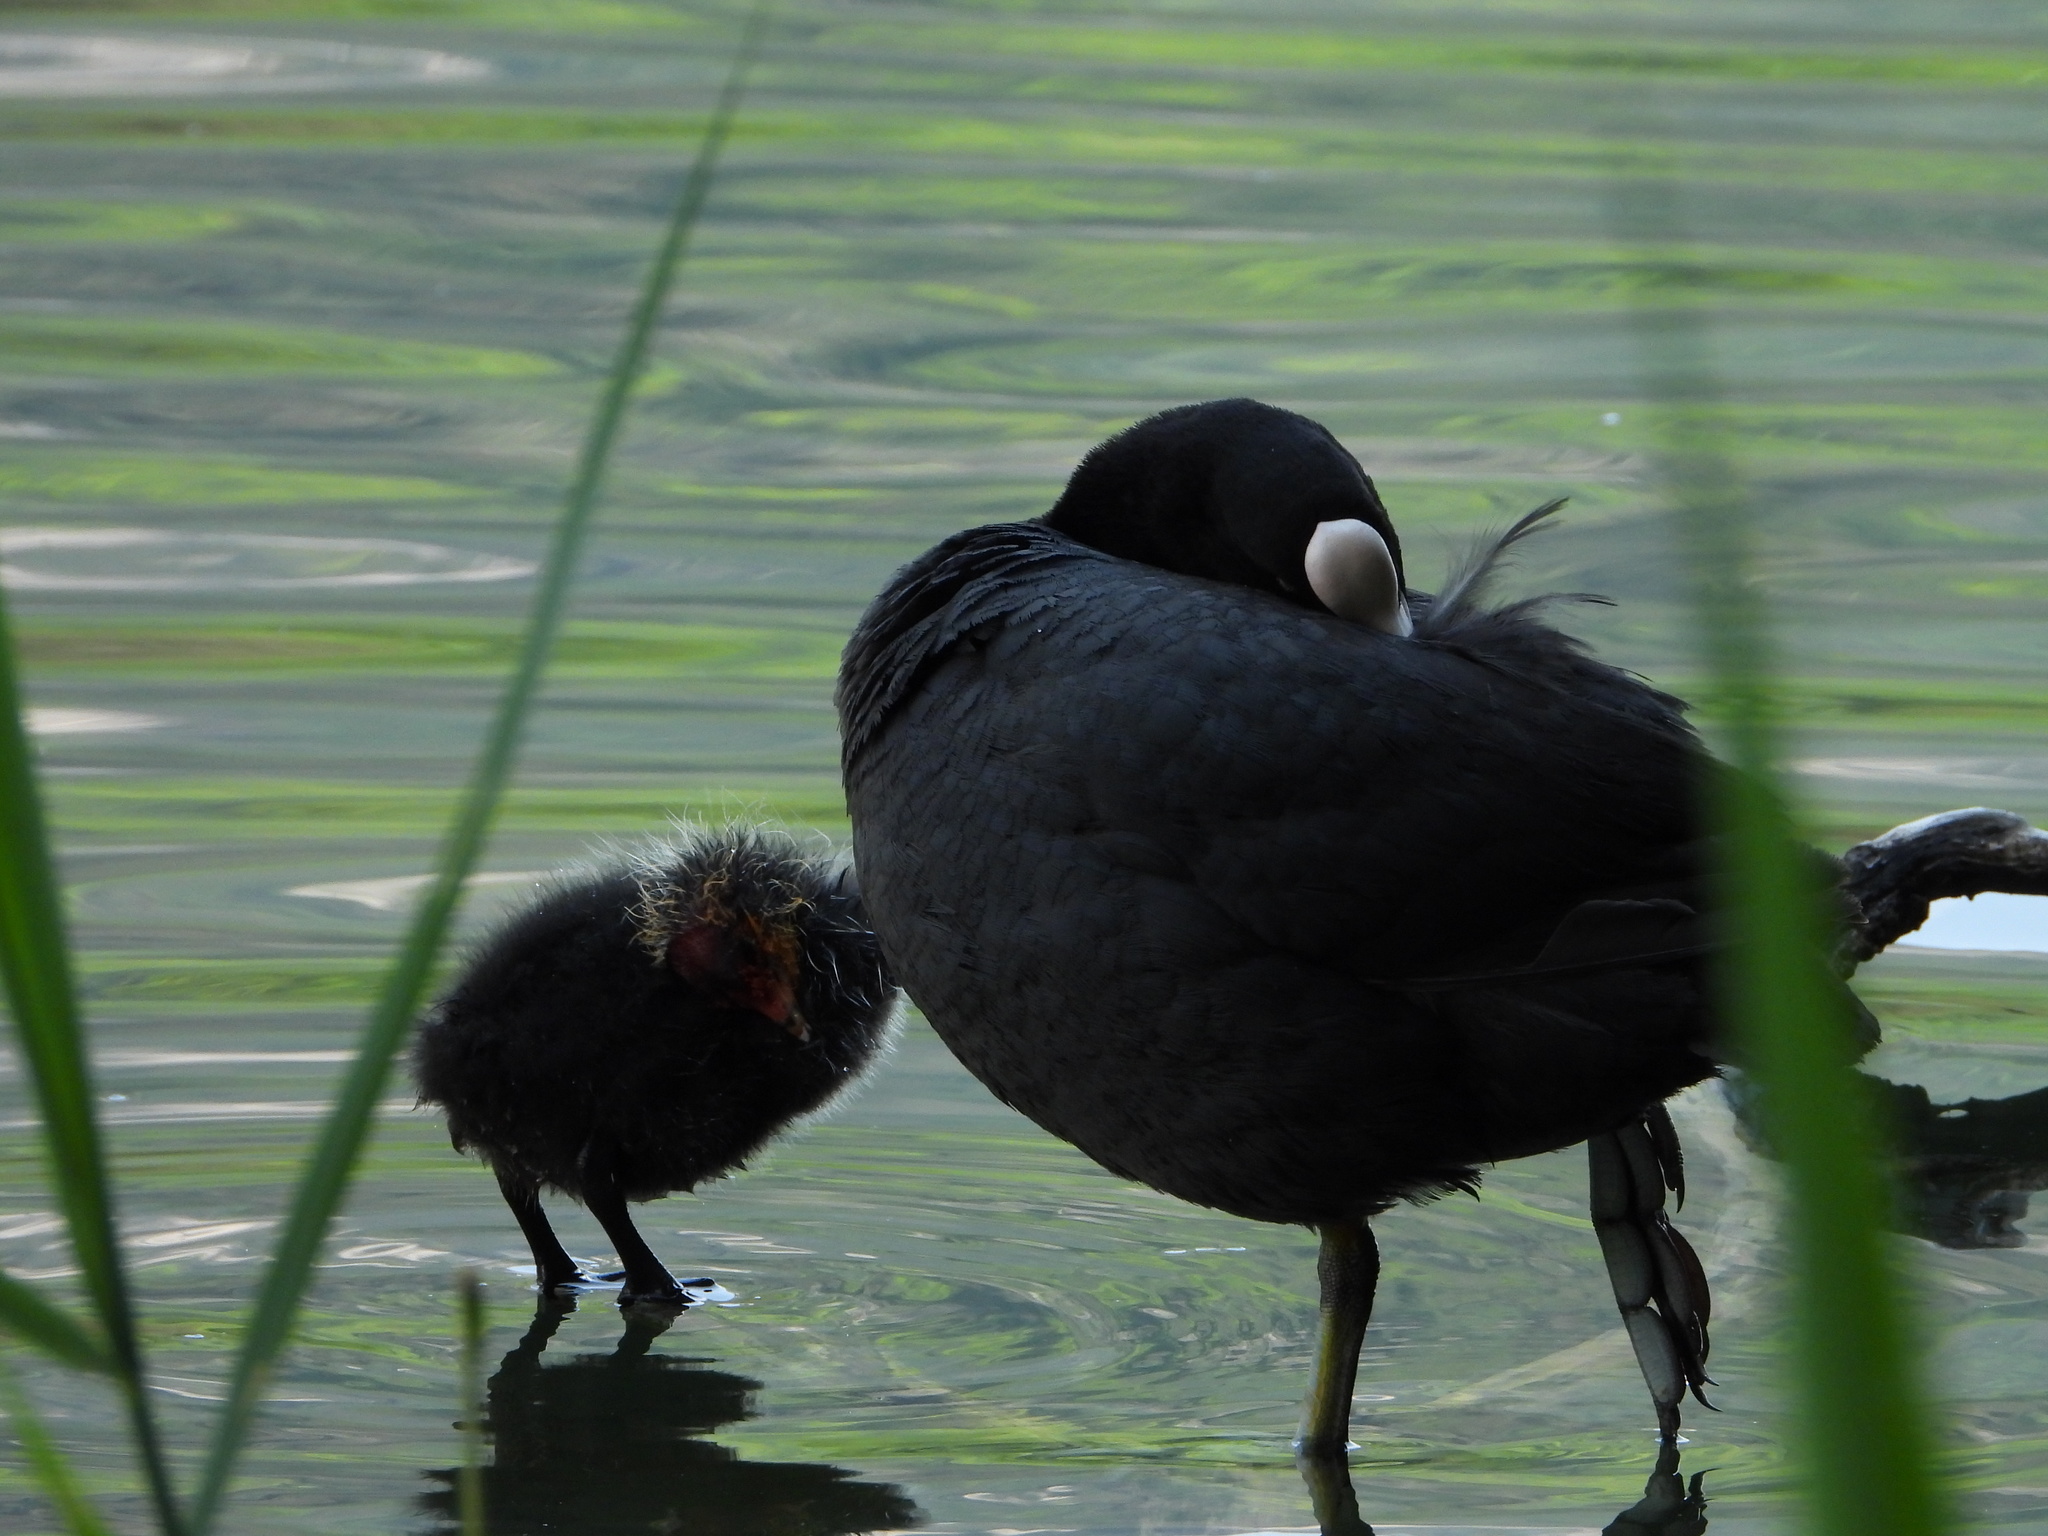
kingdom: Animalia
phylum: Chordata
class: Aves
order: Gruiformes
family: Rallidae
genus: Fulica
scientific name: Fulica atra
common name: Eurasian coot
